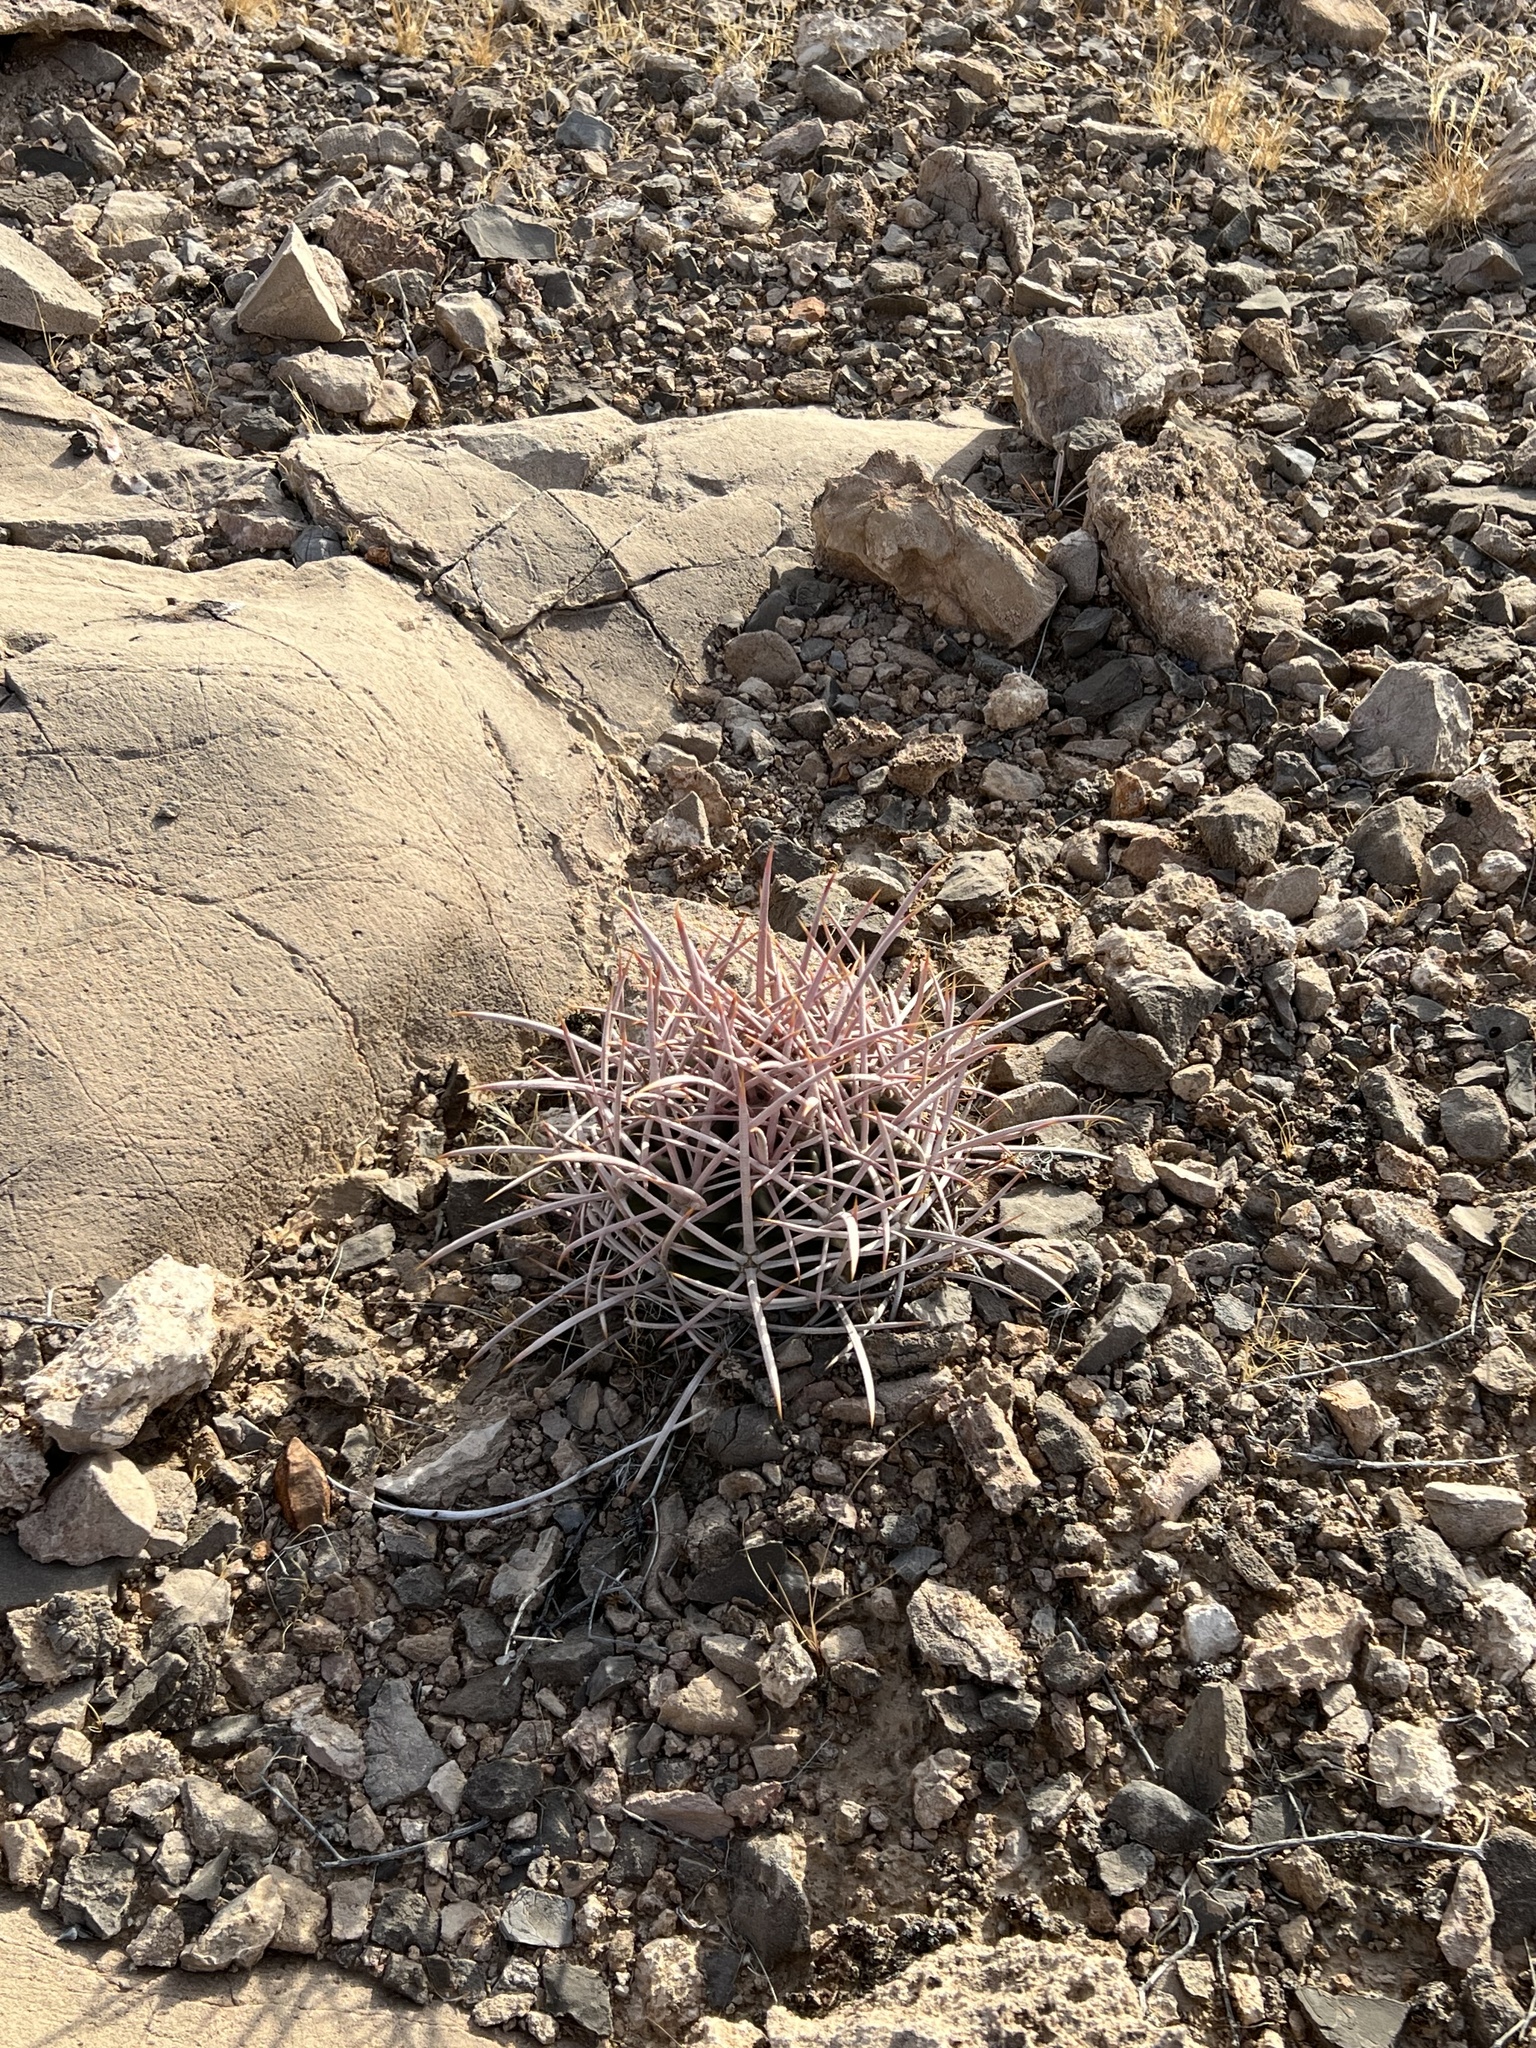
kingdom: Plantae
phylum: Tracheophyta
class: Magnoliopsida
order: Caryophyllales
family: Cactaceae
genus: Echinocactus
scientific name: Echinocactus polycephalus
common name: Cottontop cactus
